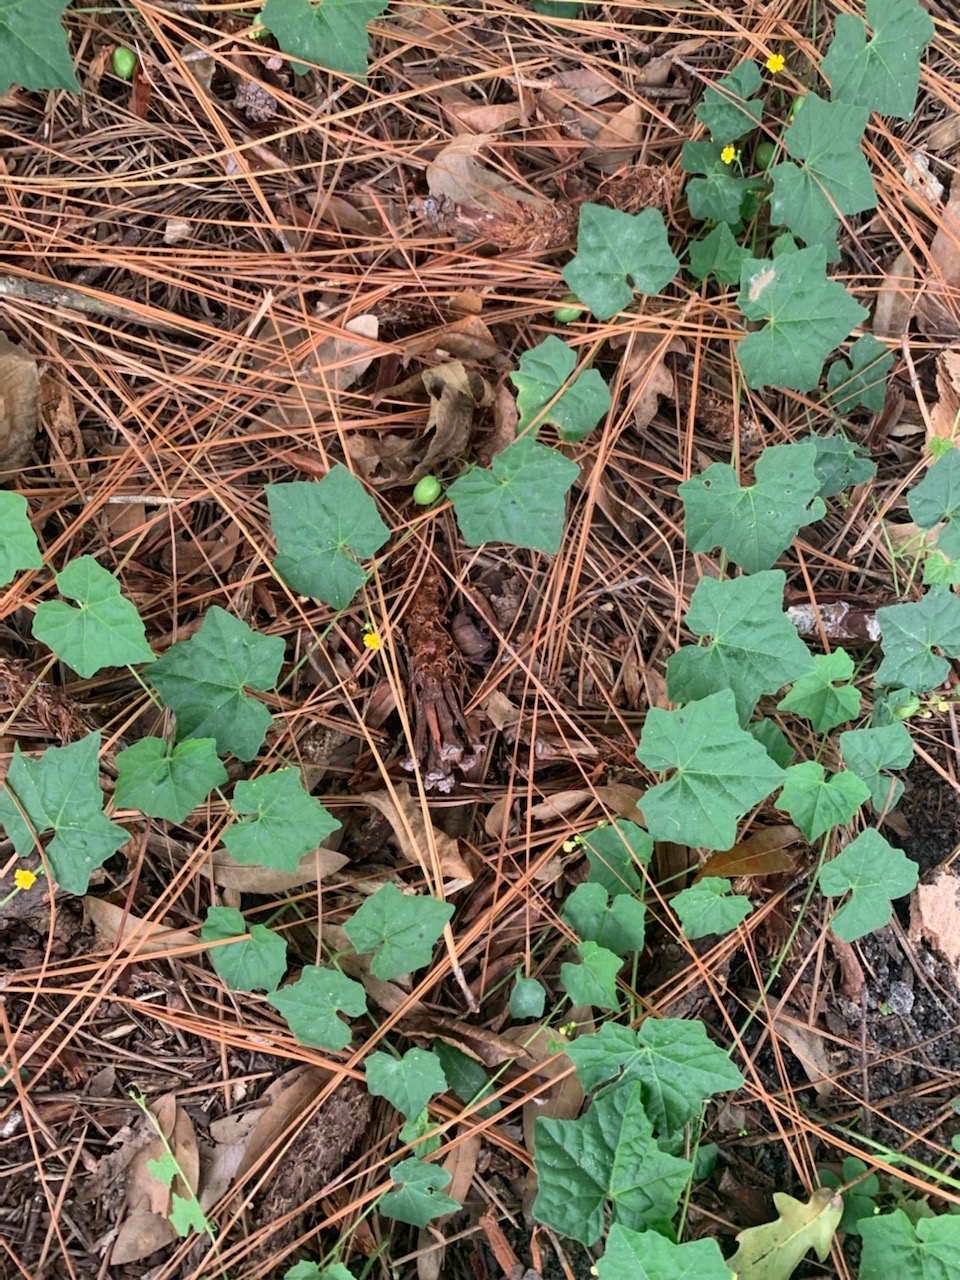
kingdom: Plantae
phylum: Tracheophyta
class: Magnoliopsida
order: Cucurbitales
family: Cucurbitaceae
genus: Melothria
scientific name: Melothria pendula
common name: Creeping-cucumber
